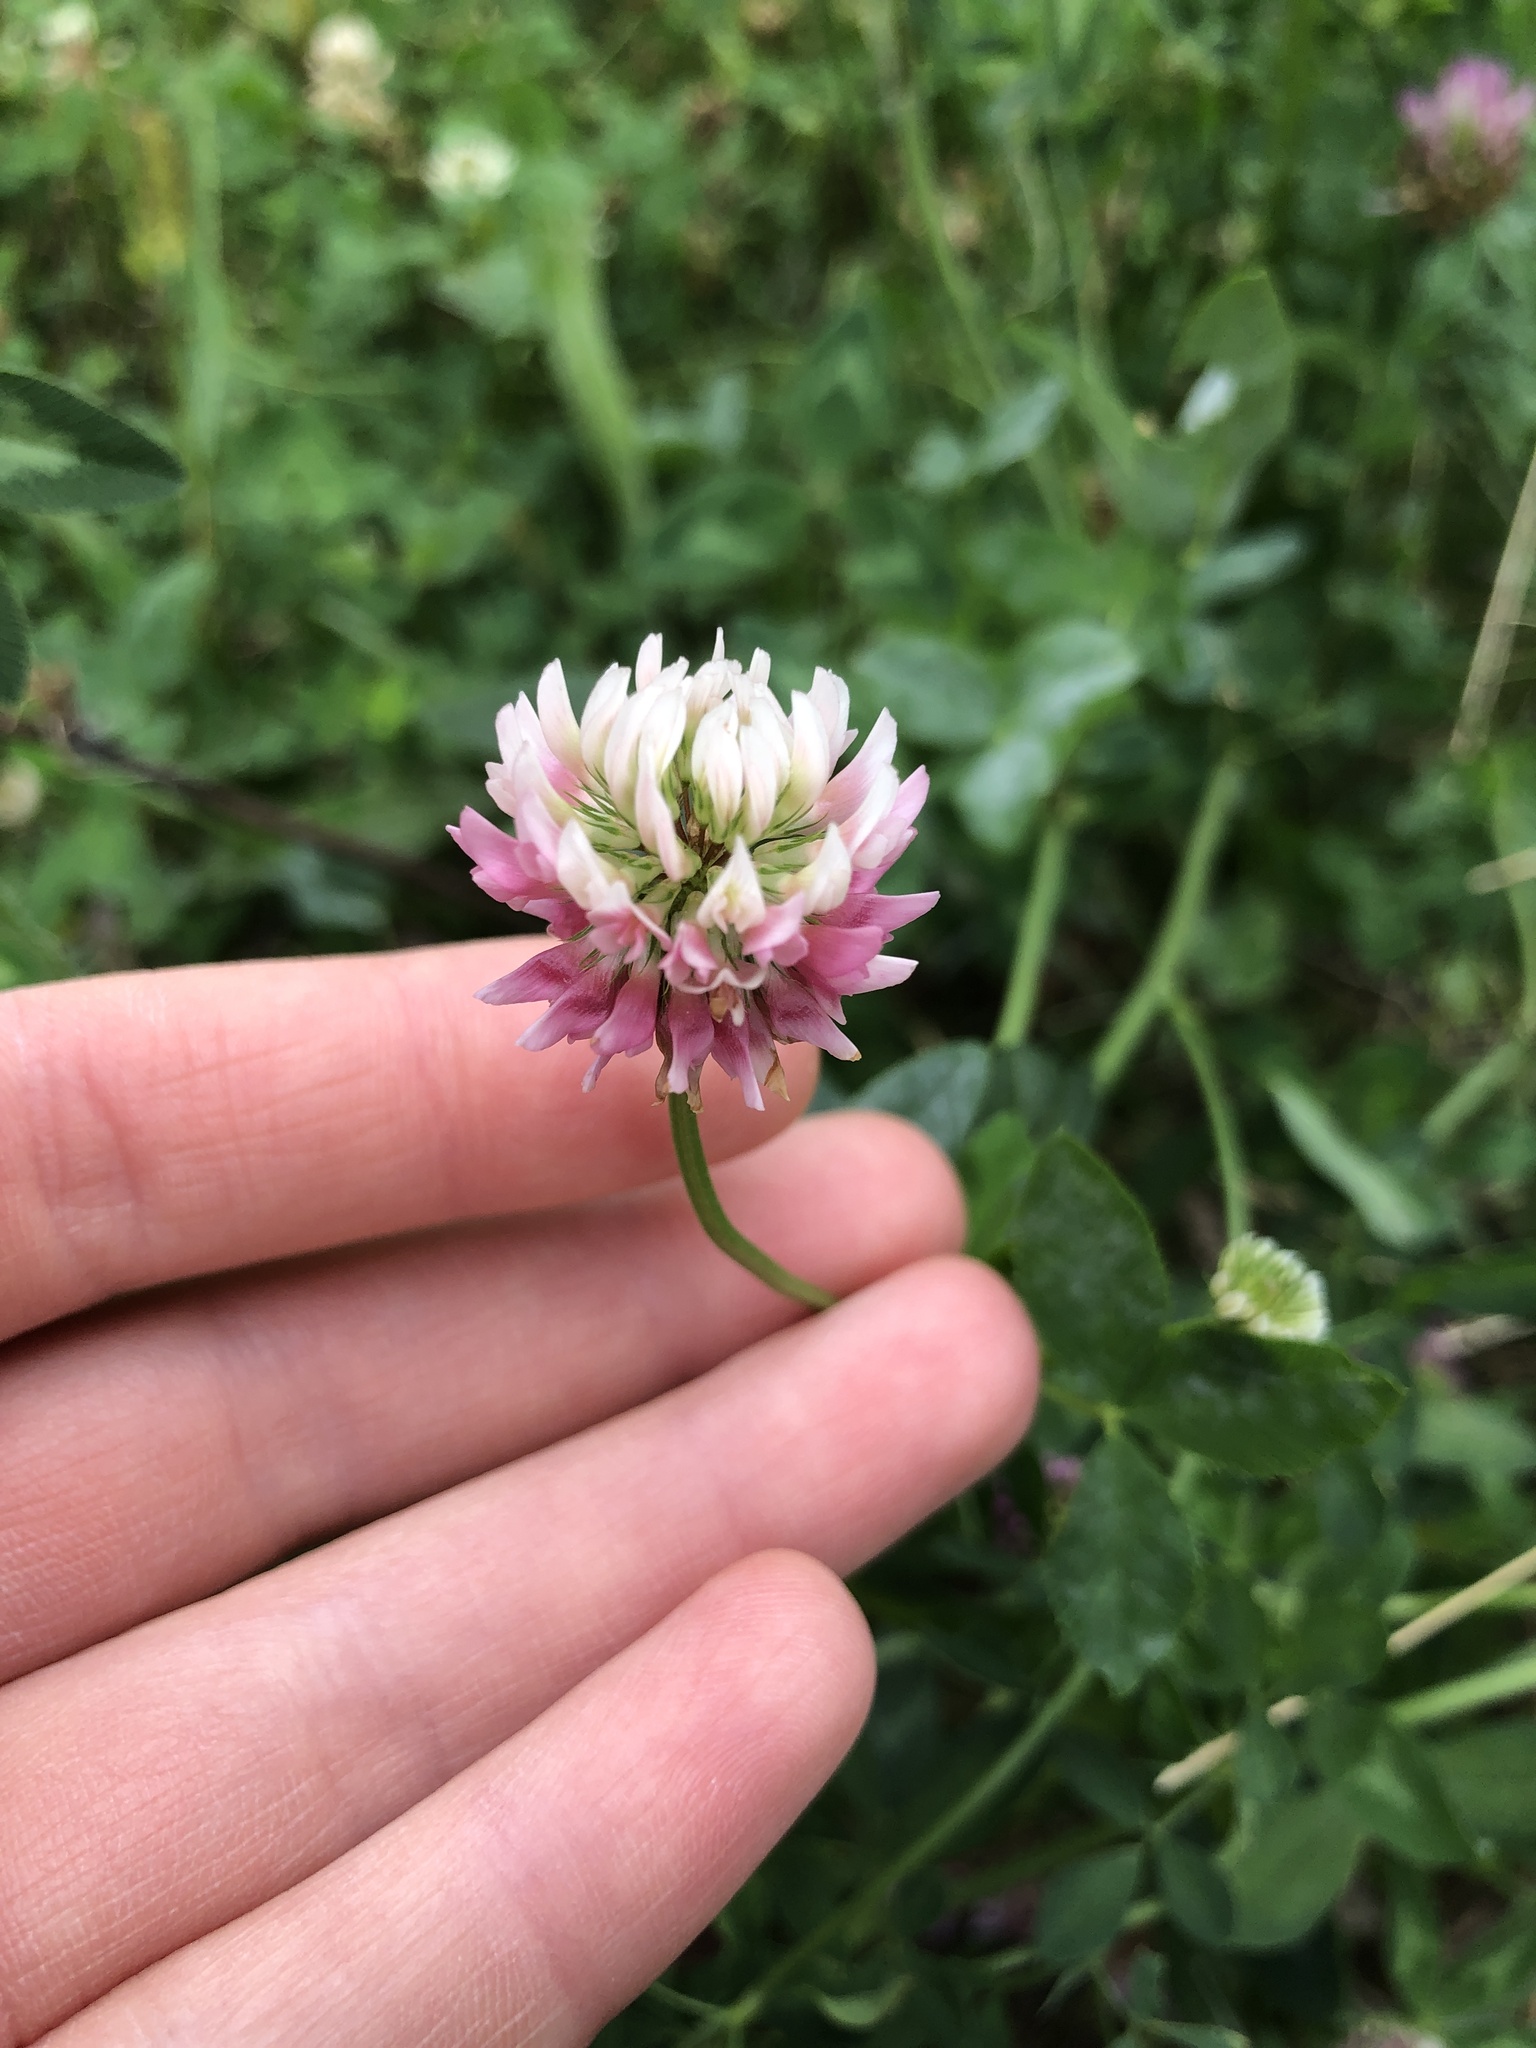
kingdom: Plantae
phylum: Tracheophyta
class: Magnoliopsida
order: Fabales
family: Fabaceae
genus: Trifolium
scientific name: Trifolium hybridum
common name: Alsike clover
